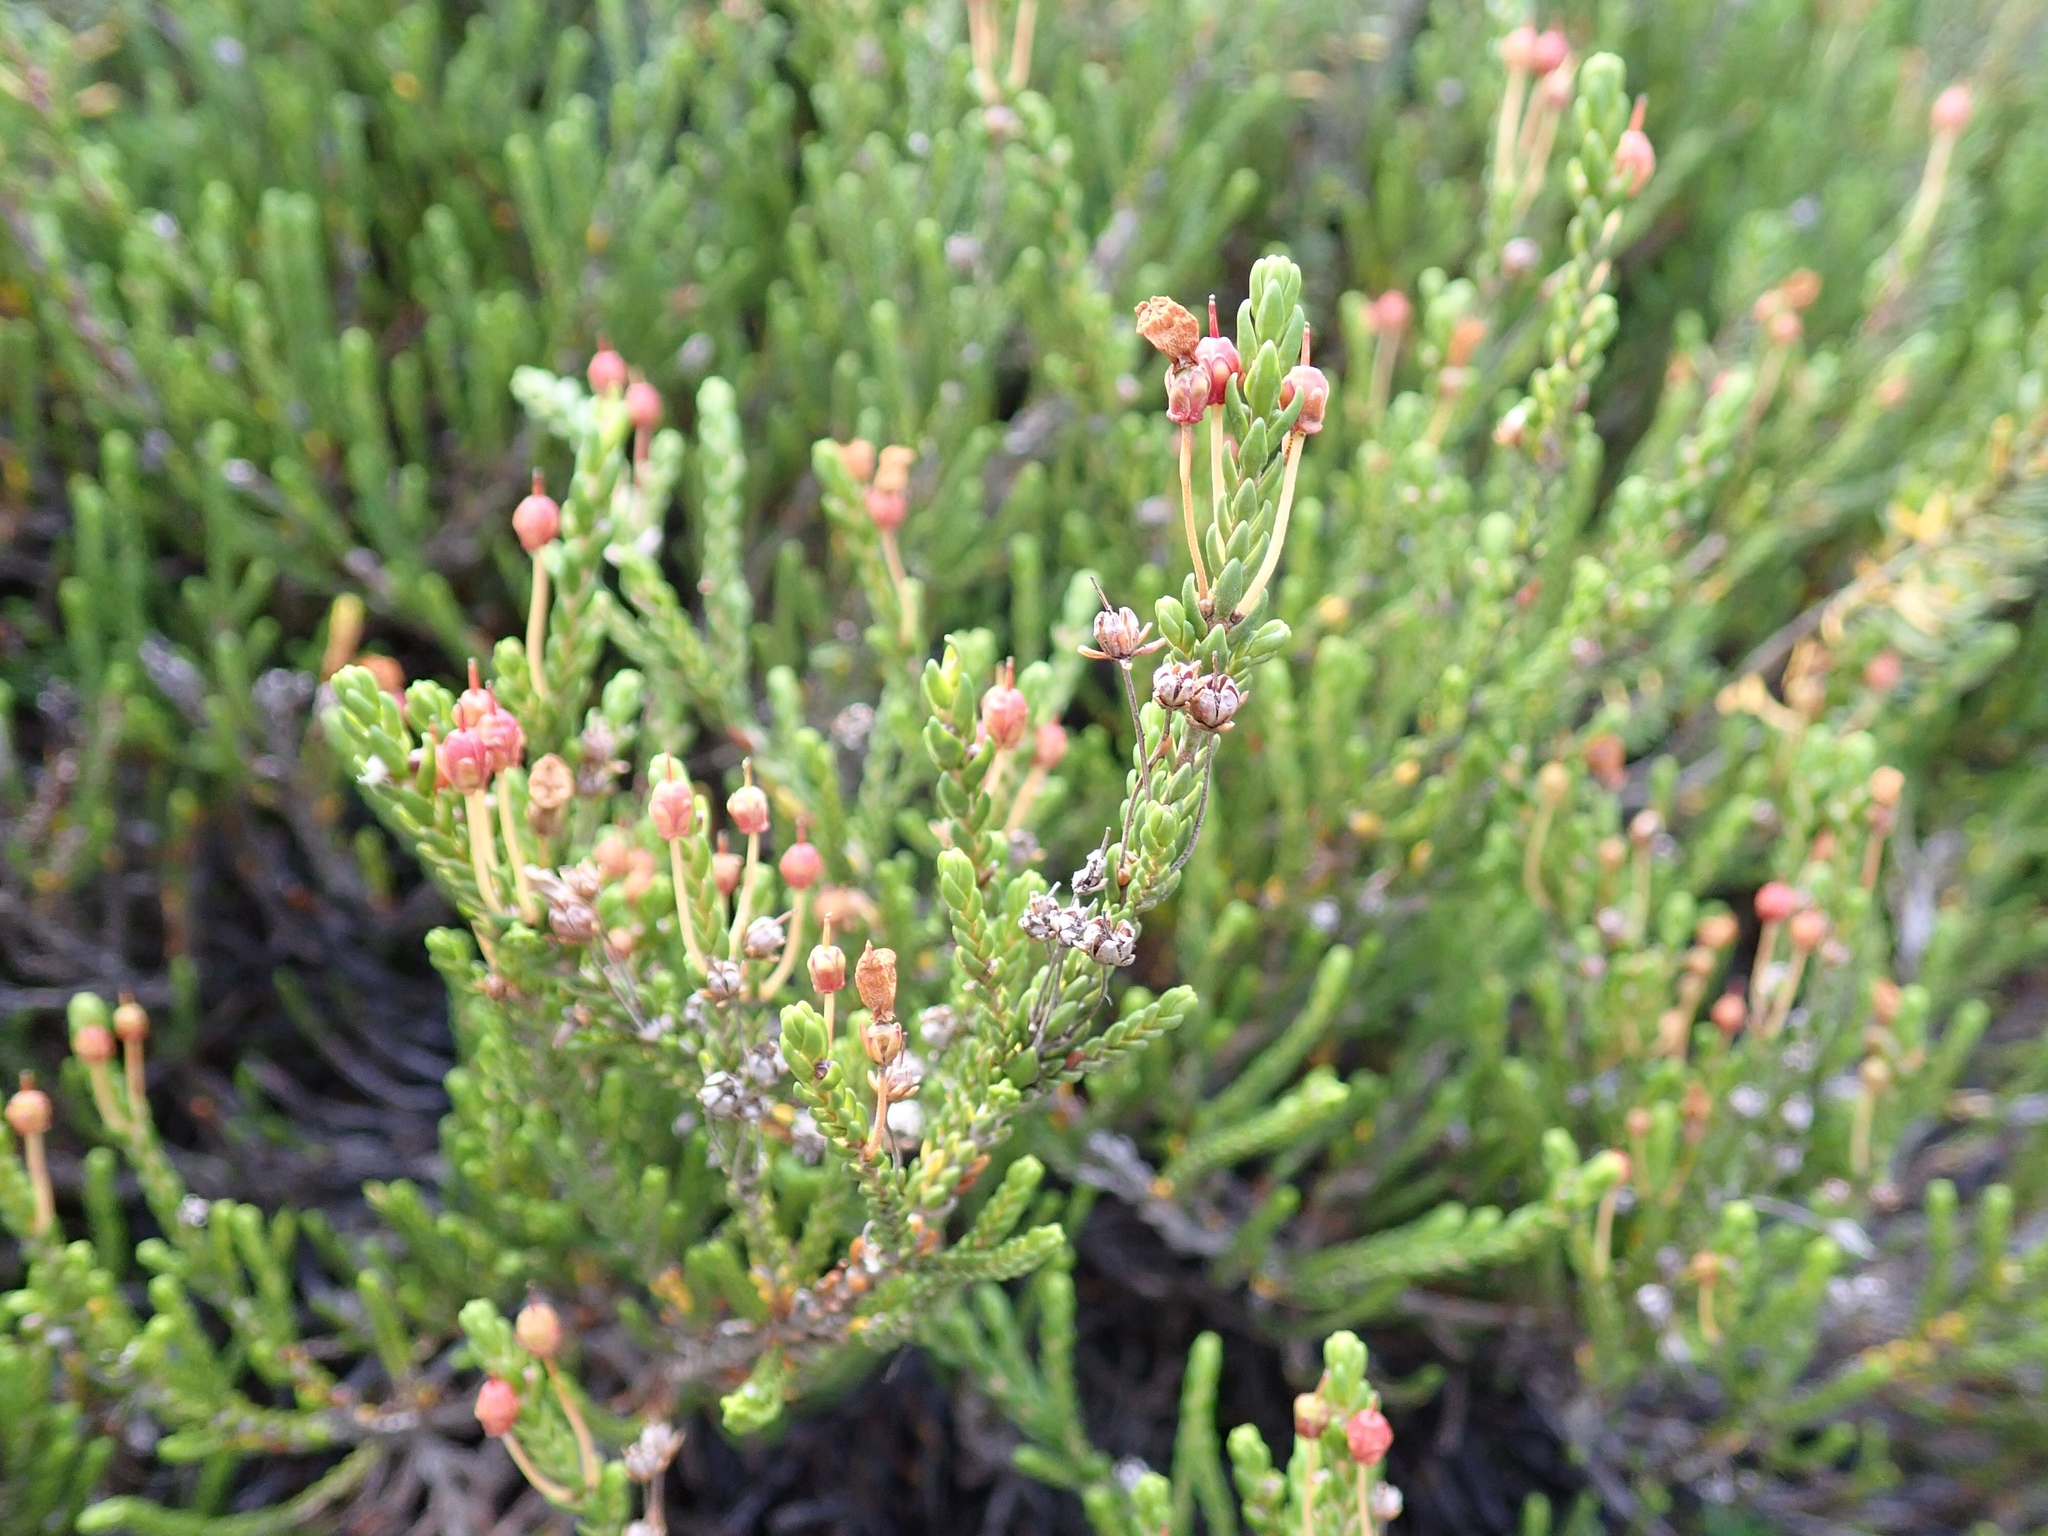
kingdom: Plantae
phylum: Tracheophyta
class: Magnoliopsida
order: Ericales
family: Ericaceae
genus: Cassiope
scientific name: Cassiope mertensiana
